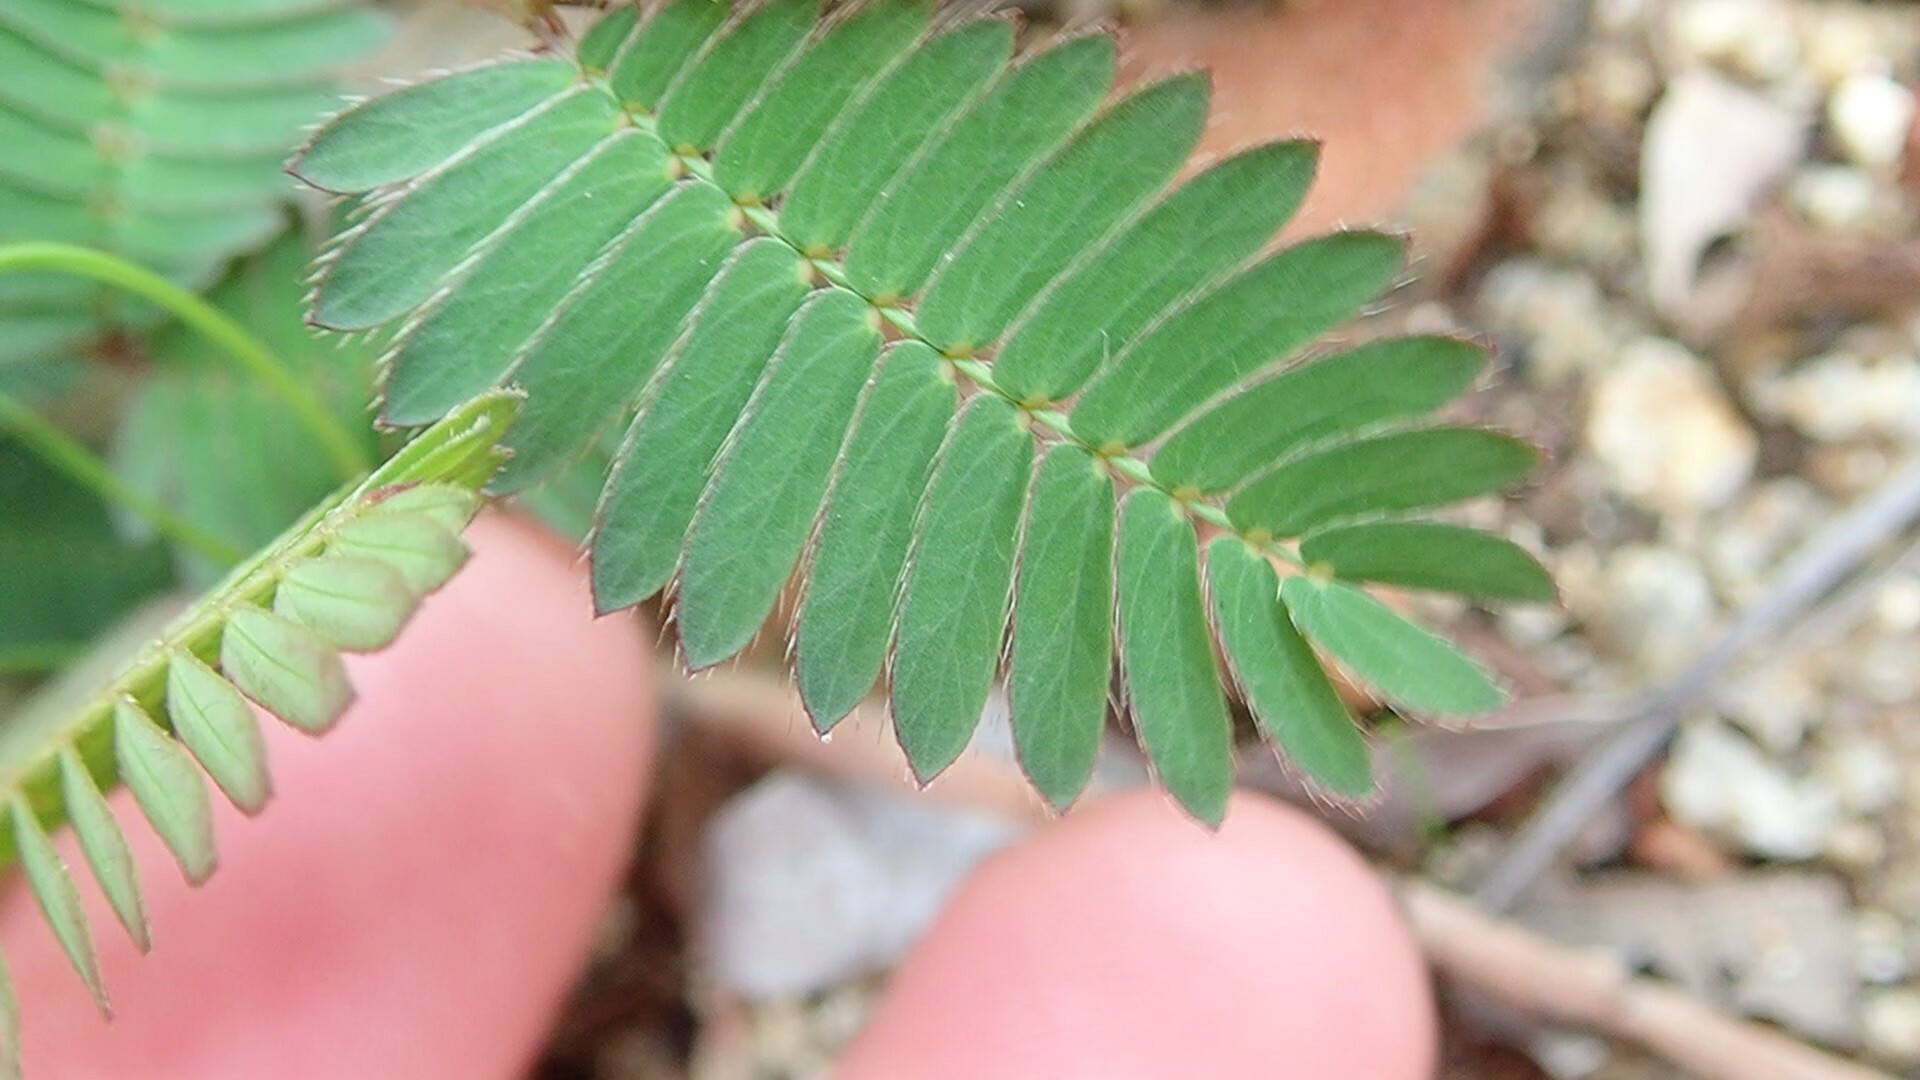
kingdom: Plantae
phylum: Tracheophyta
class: Magnoliopsida
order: Fabales
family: Fabaceae
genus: Mimosa
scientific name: Mimosa pudica
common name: Sensitive plant
